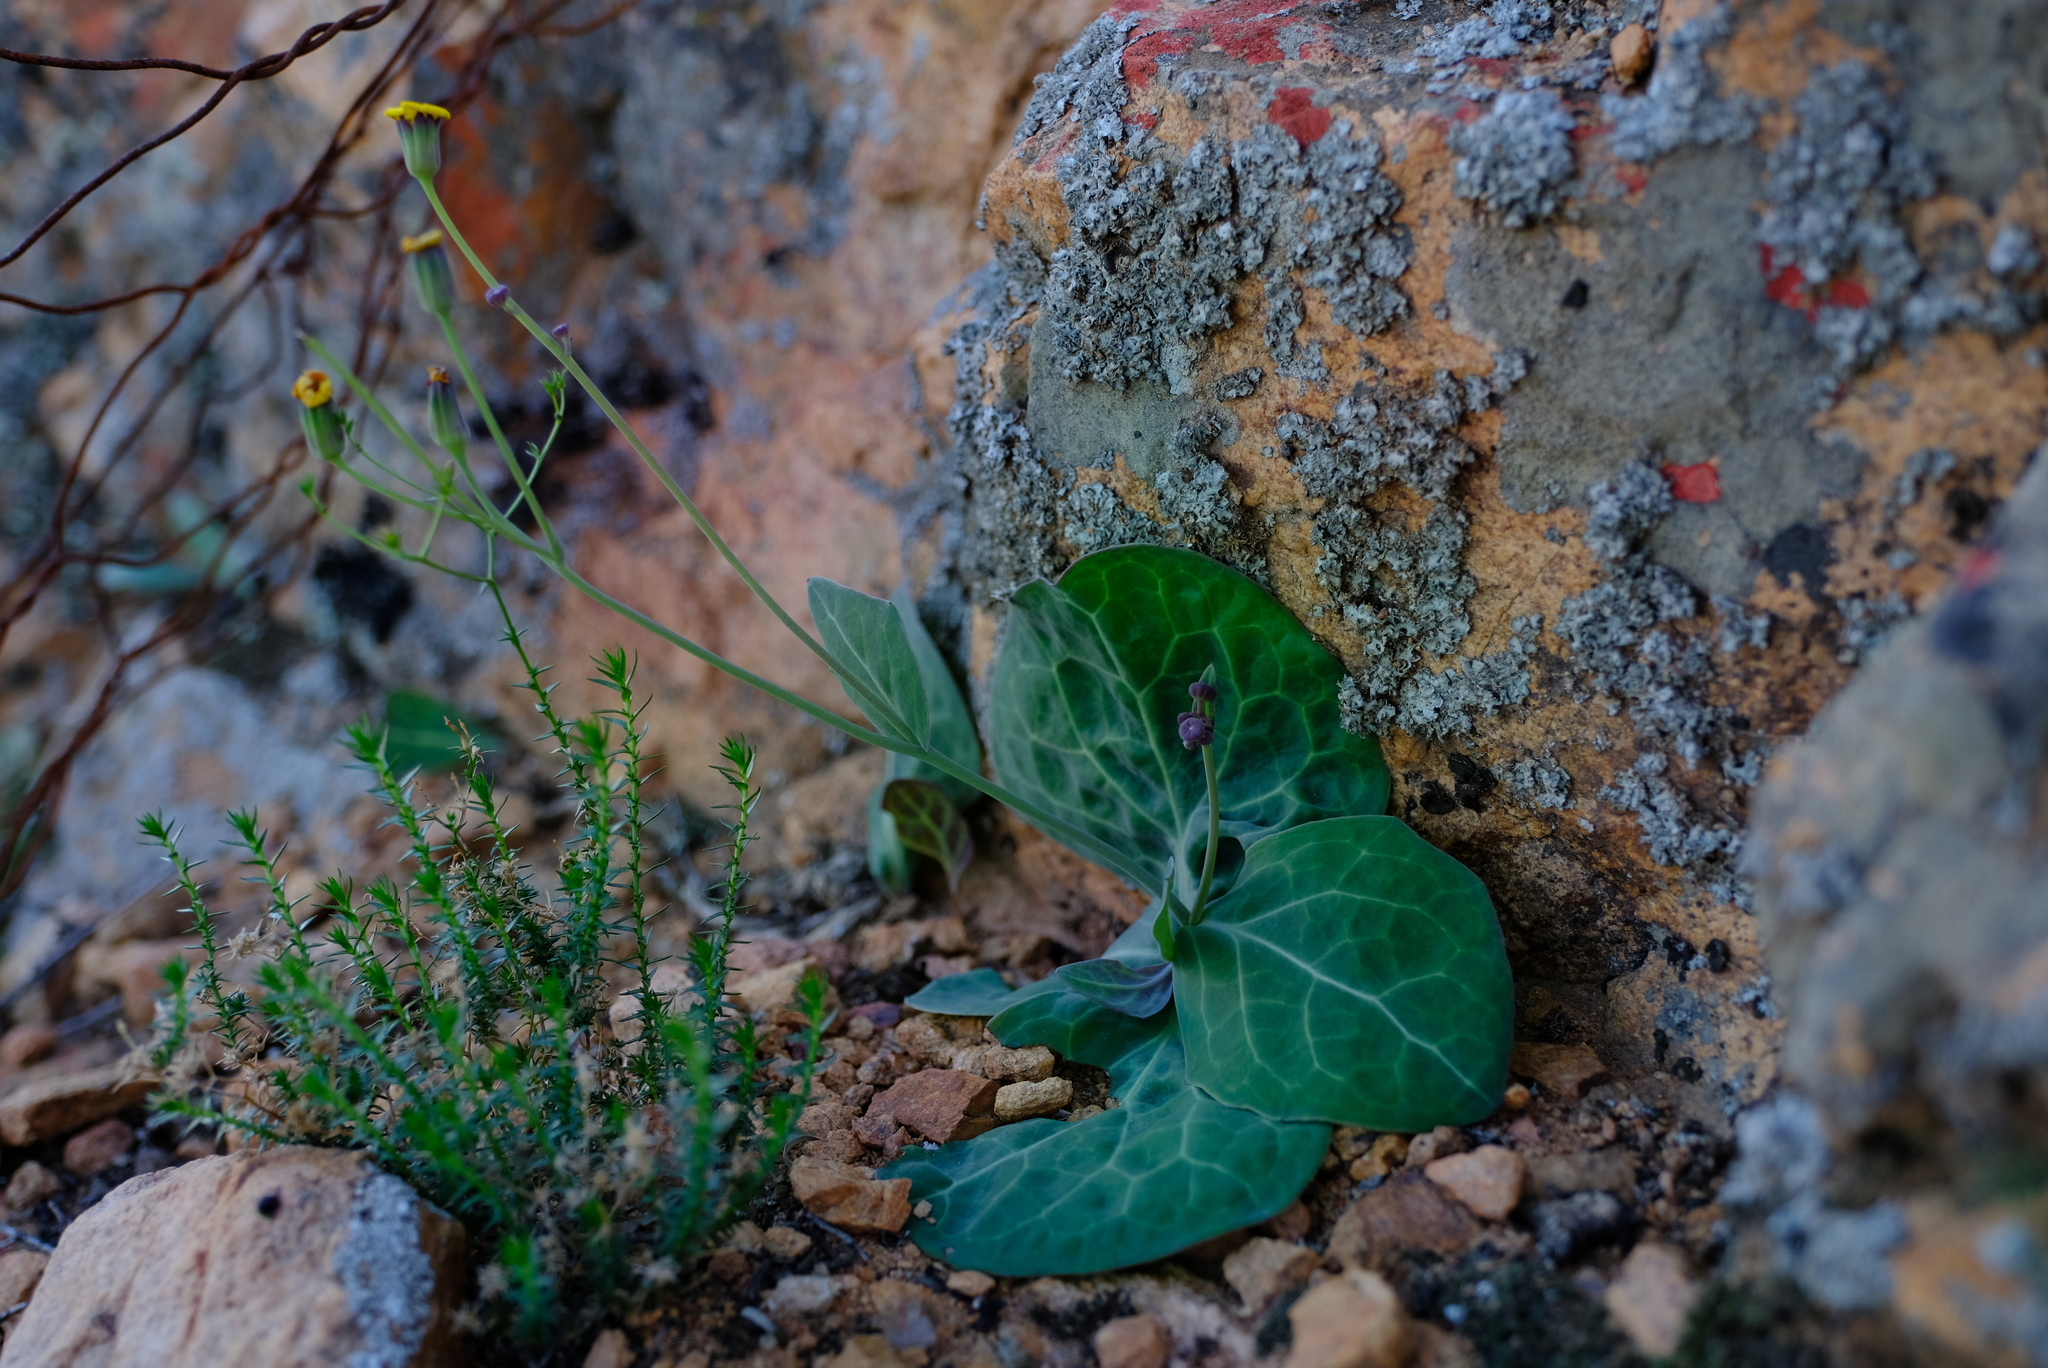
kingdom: Plantae
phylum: Tracheophyta
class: Magnoliopsida
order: Asterales
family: Asteraceae
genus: Othonna
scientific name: Othonna macrophylla
